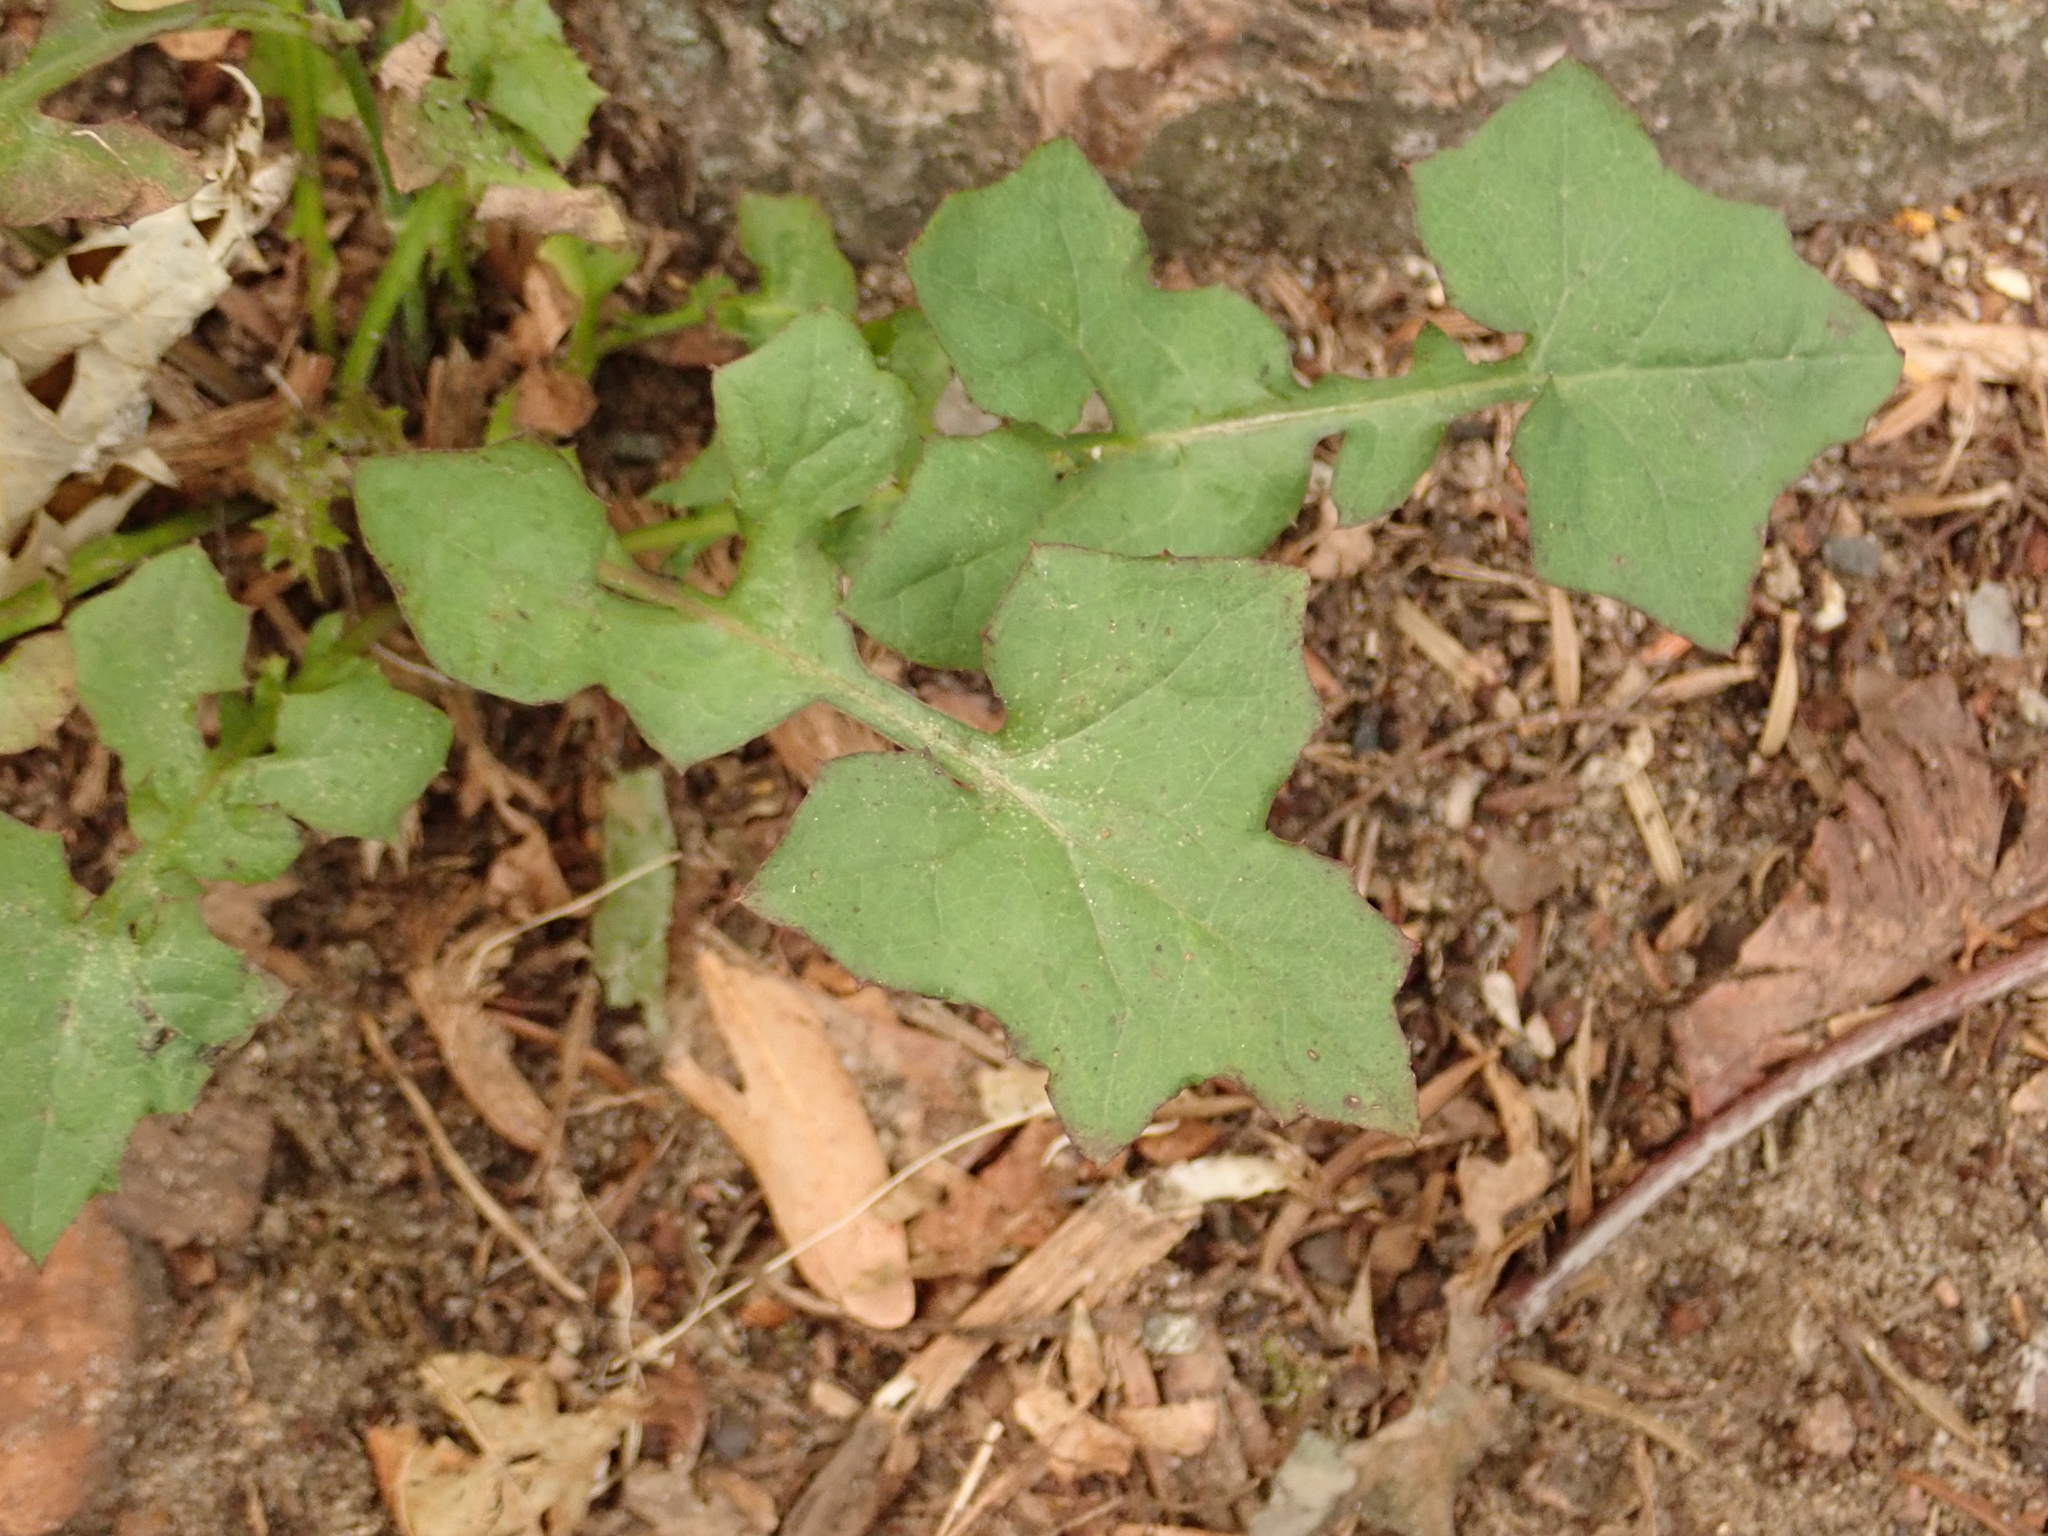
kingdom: Plantae
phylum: Tracheophyta
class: Magnoliopsida
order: Asterales
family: Asteraceae
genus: Mycelis
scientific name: Mycelis muralis
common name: Wall lettuce
